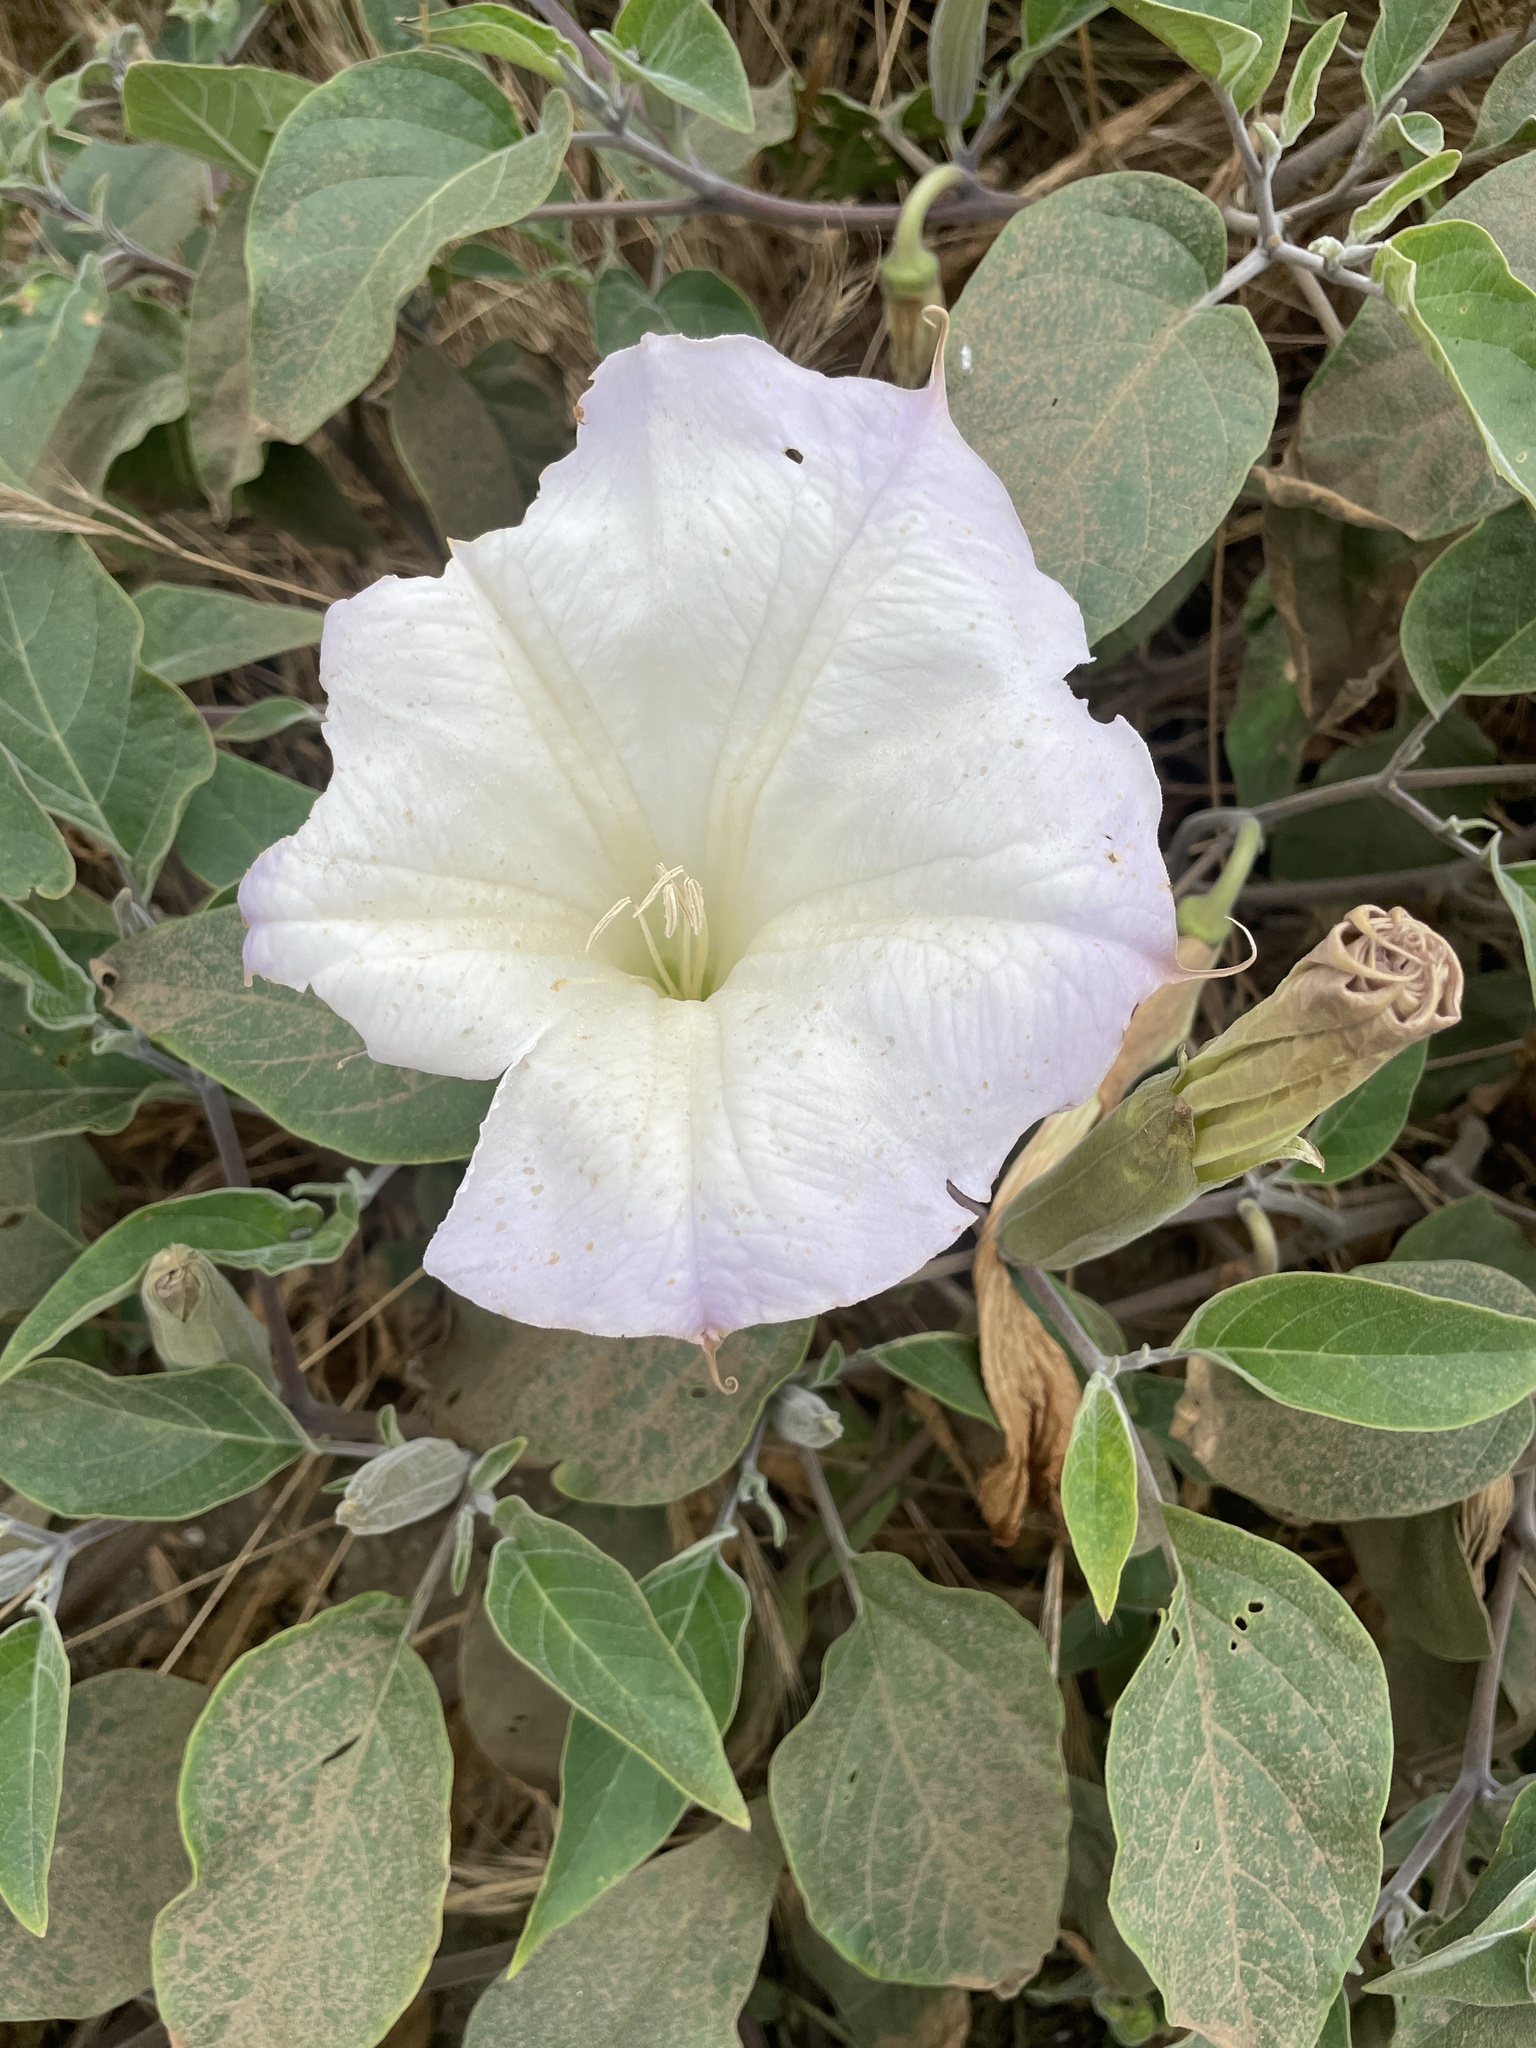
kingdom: Plantae
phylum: Tracheophyta
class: Magnoliopsida
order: Solanales
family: Solanaceae
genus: Datura
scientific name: Datura wrightii
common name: Sacred thorn-apple
